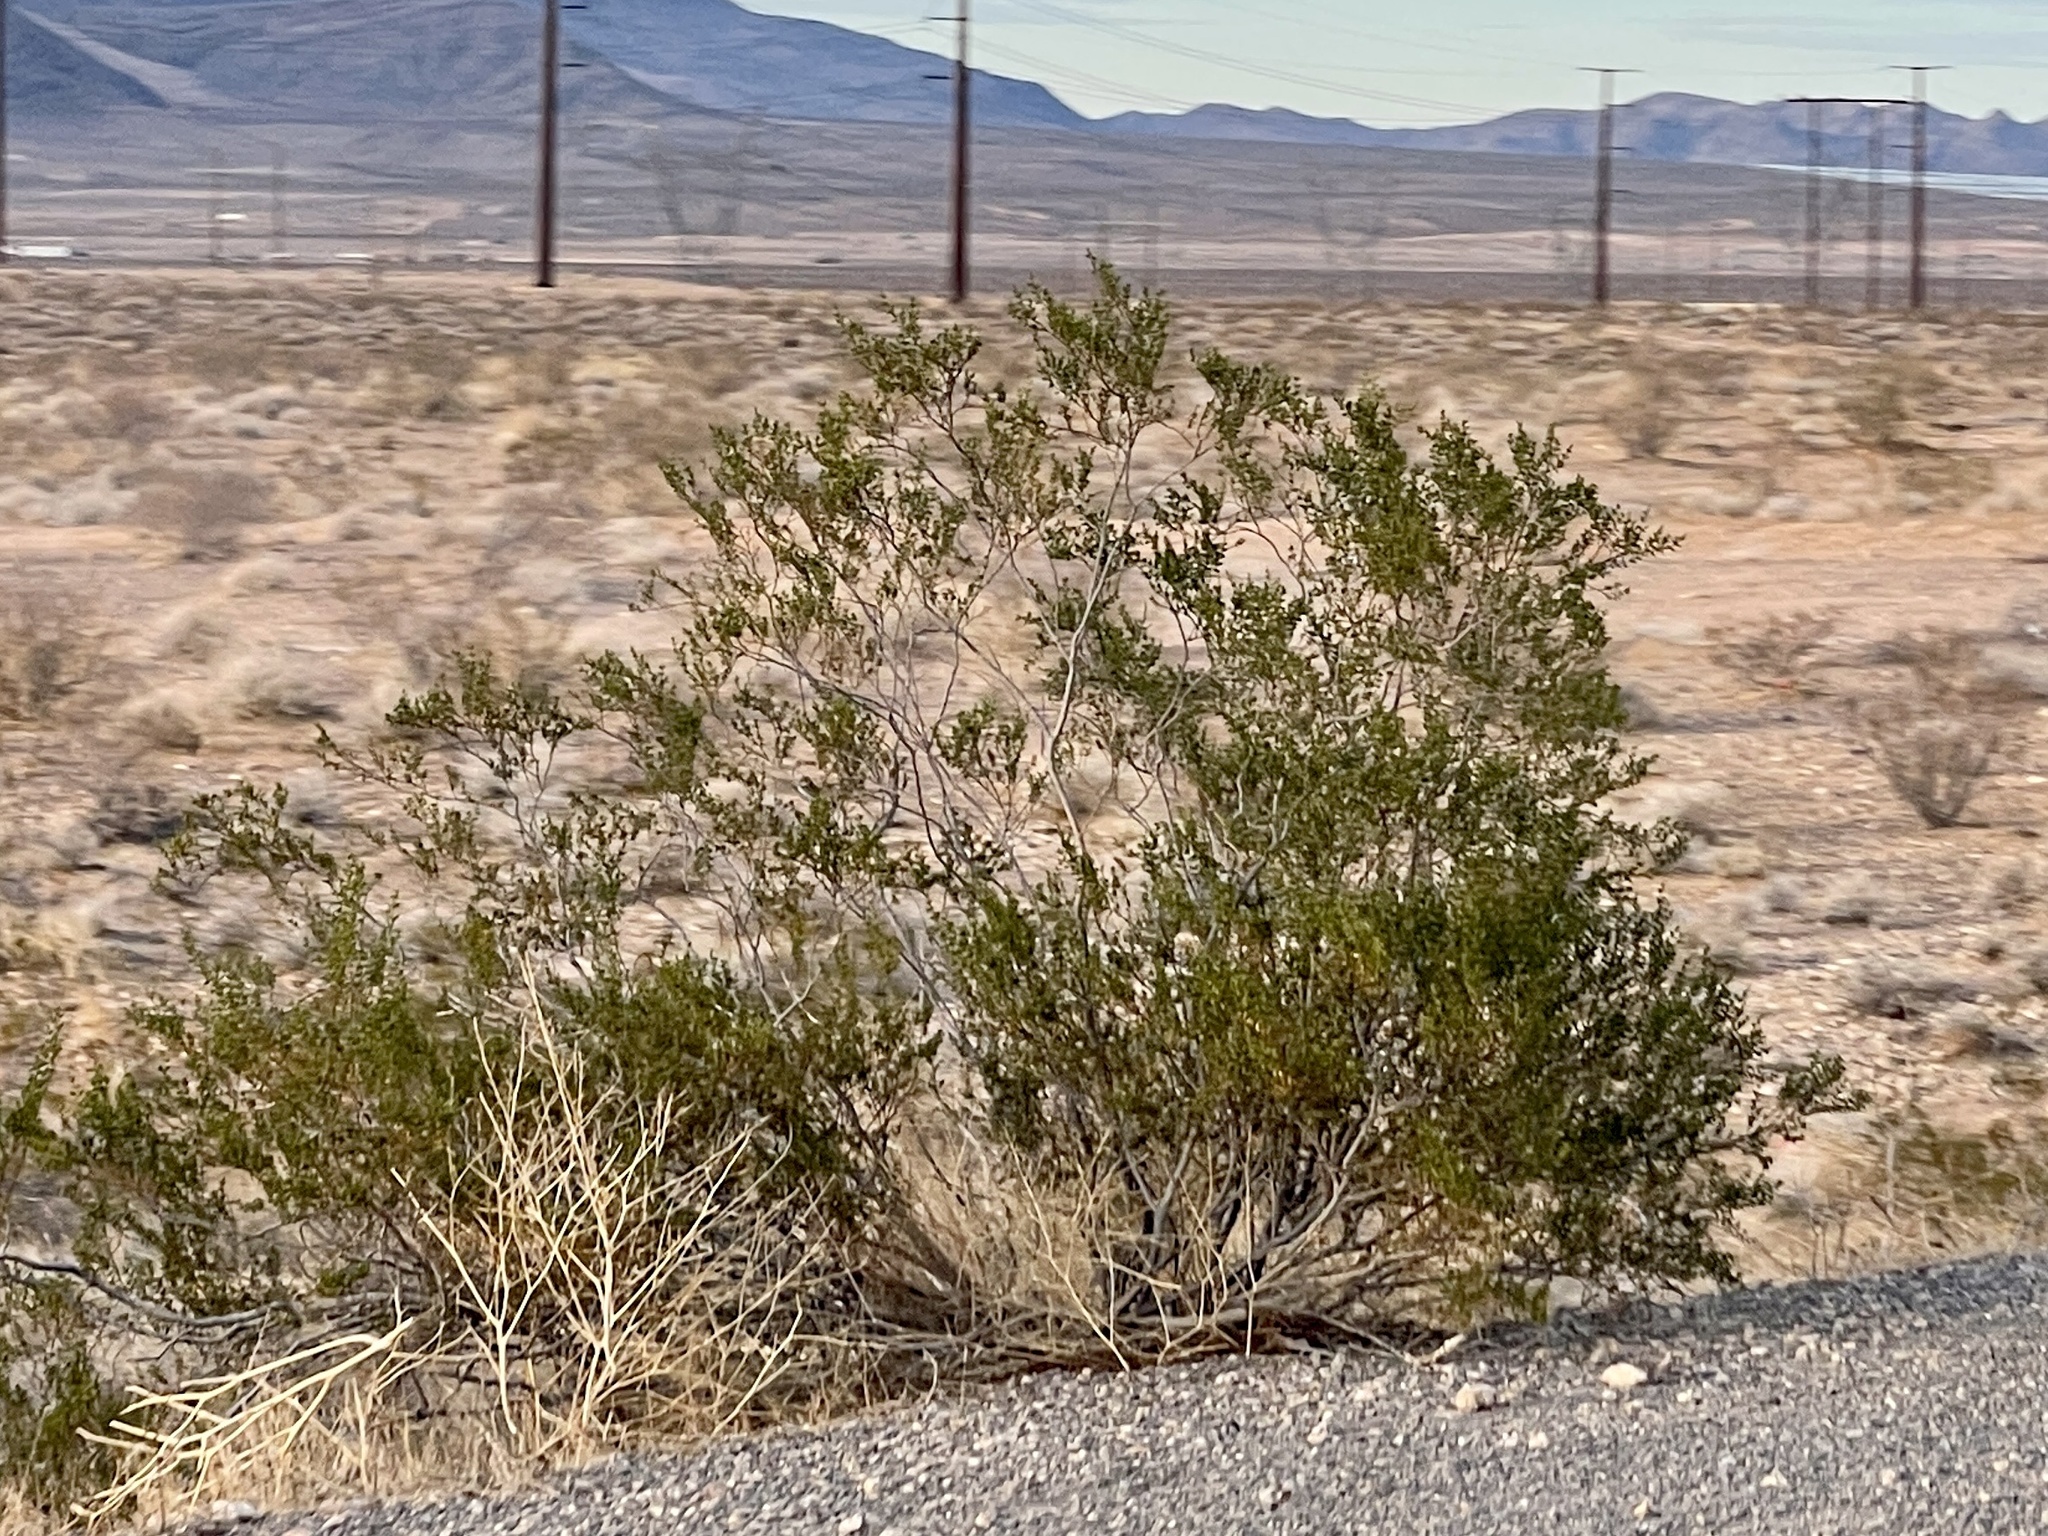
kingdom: Plantae
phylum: Tracheophyta
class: Magnoliopsida
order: Zygophyllales
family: Zygophyllaceae
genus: Larrea
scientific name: Larrea tridentata
